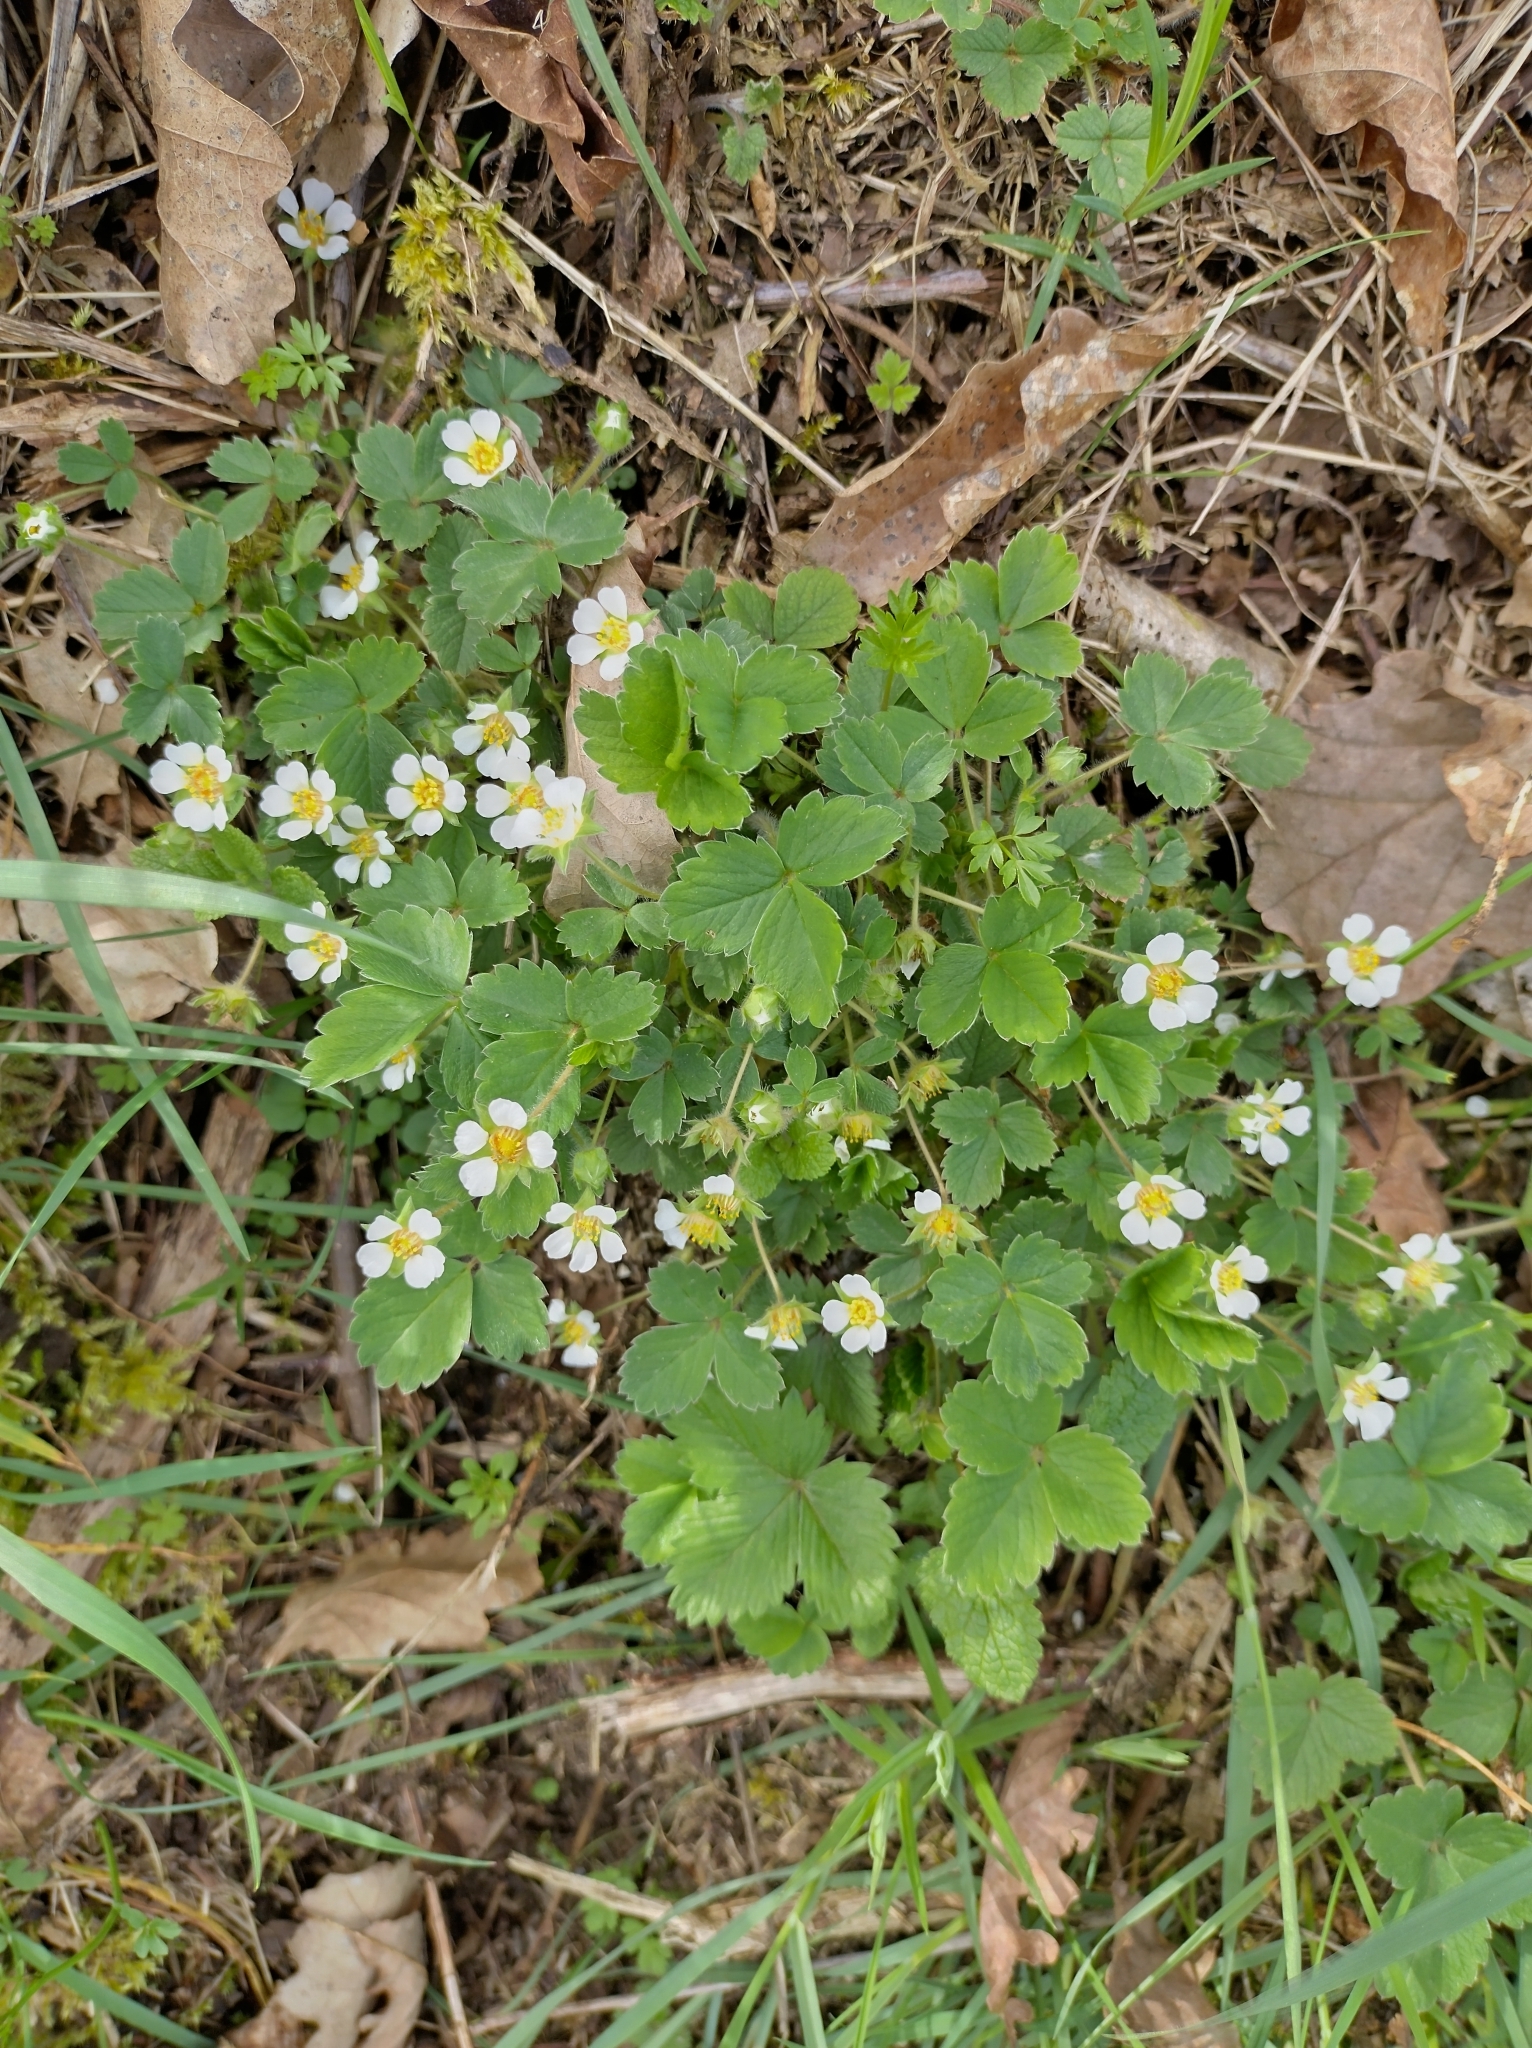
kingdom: Plantae
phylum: Tracheophyta
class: Magnoliopsida
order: Rosales
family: Rosaceae
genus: Potentilla
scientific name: Potentilla sterilis
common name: Barren strawberry
